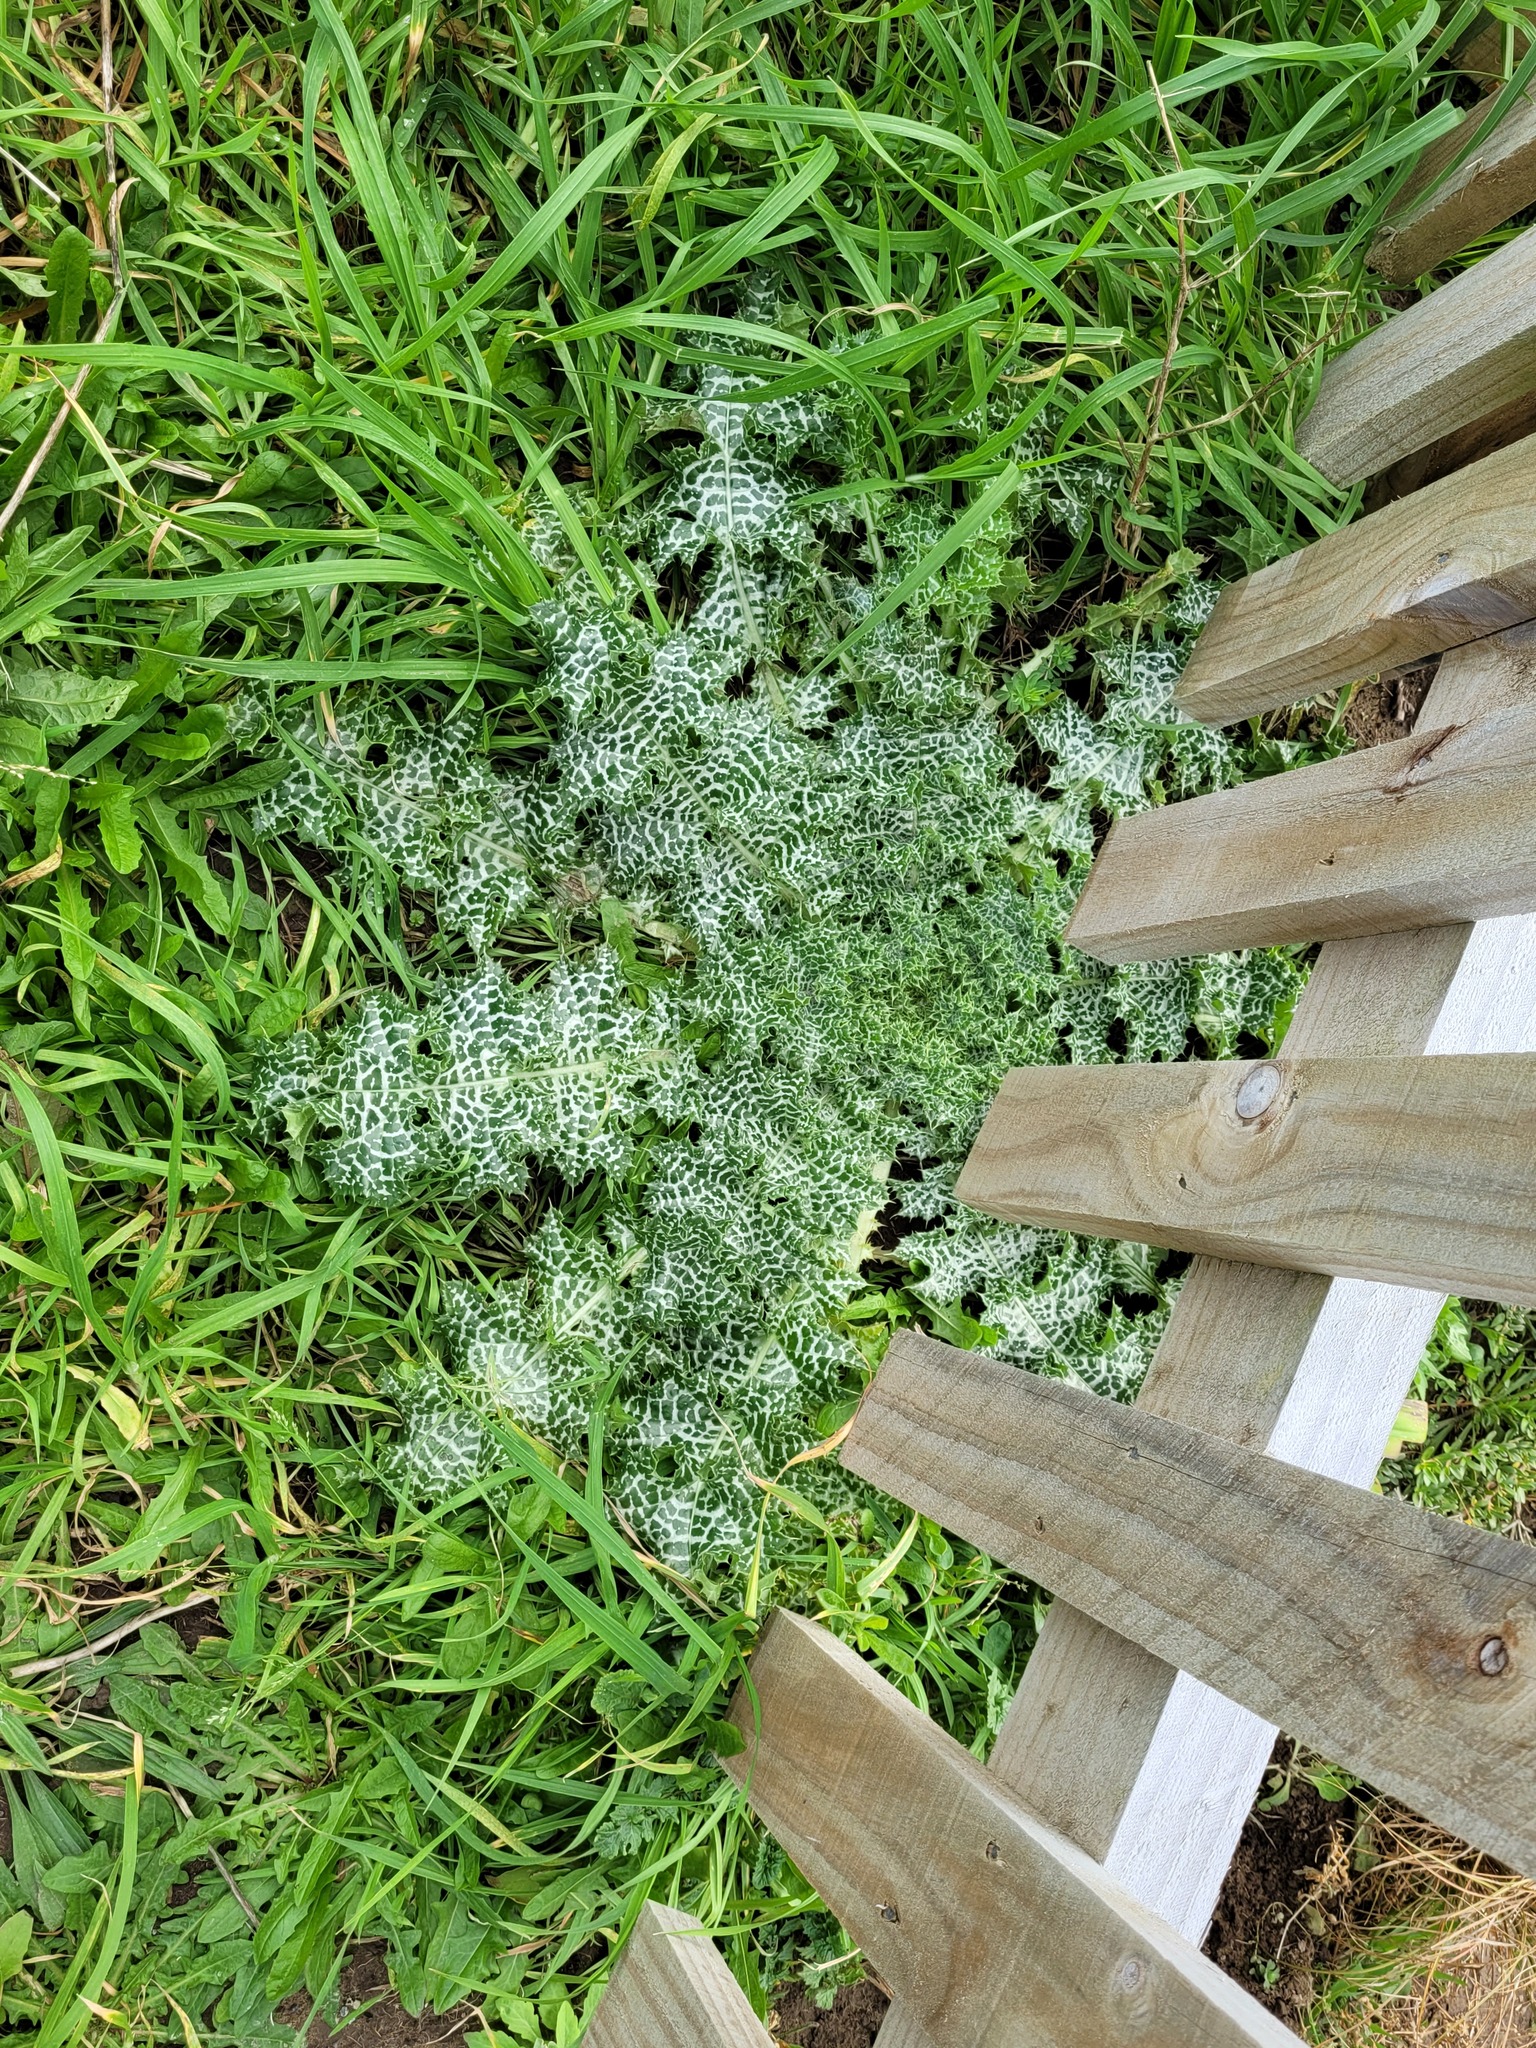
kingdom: Plantae
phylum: Tracheophyta
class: Magnoliopsida
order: Asterales
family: Asteraceae
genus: Silybum
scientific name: Silybum marianum
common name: Milk thistle
